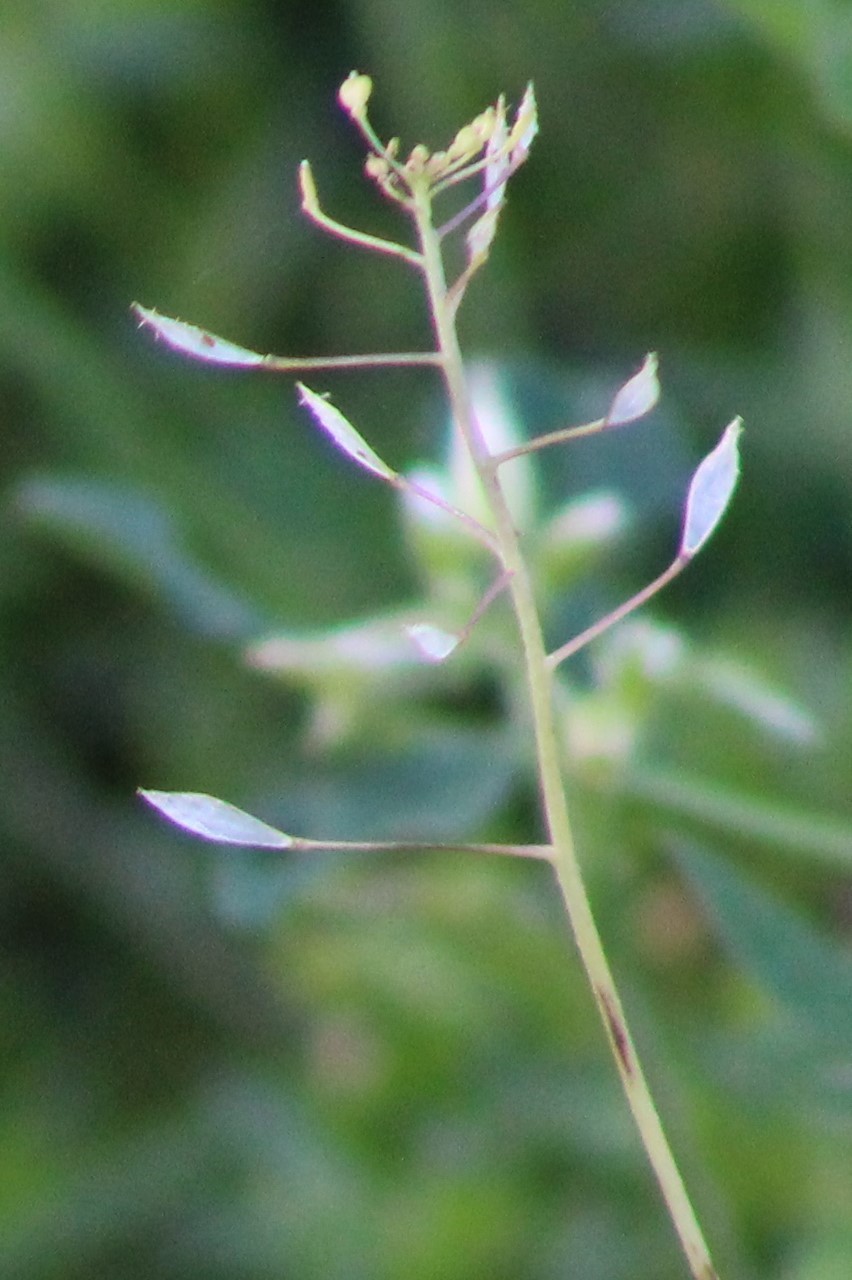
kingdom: Plantae
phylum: Tracheophyta
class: Magnoliopsida
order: Brassicales
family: Brassicaceae
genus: Capsella
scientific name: Capsella bursa-pastoris
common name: Shepherd's purse
